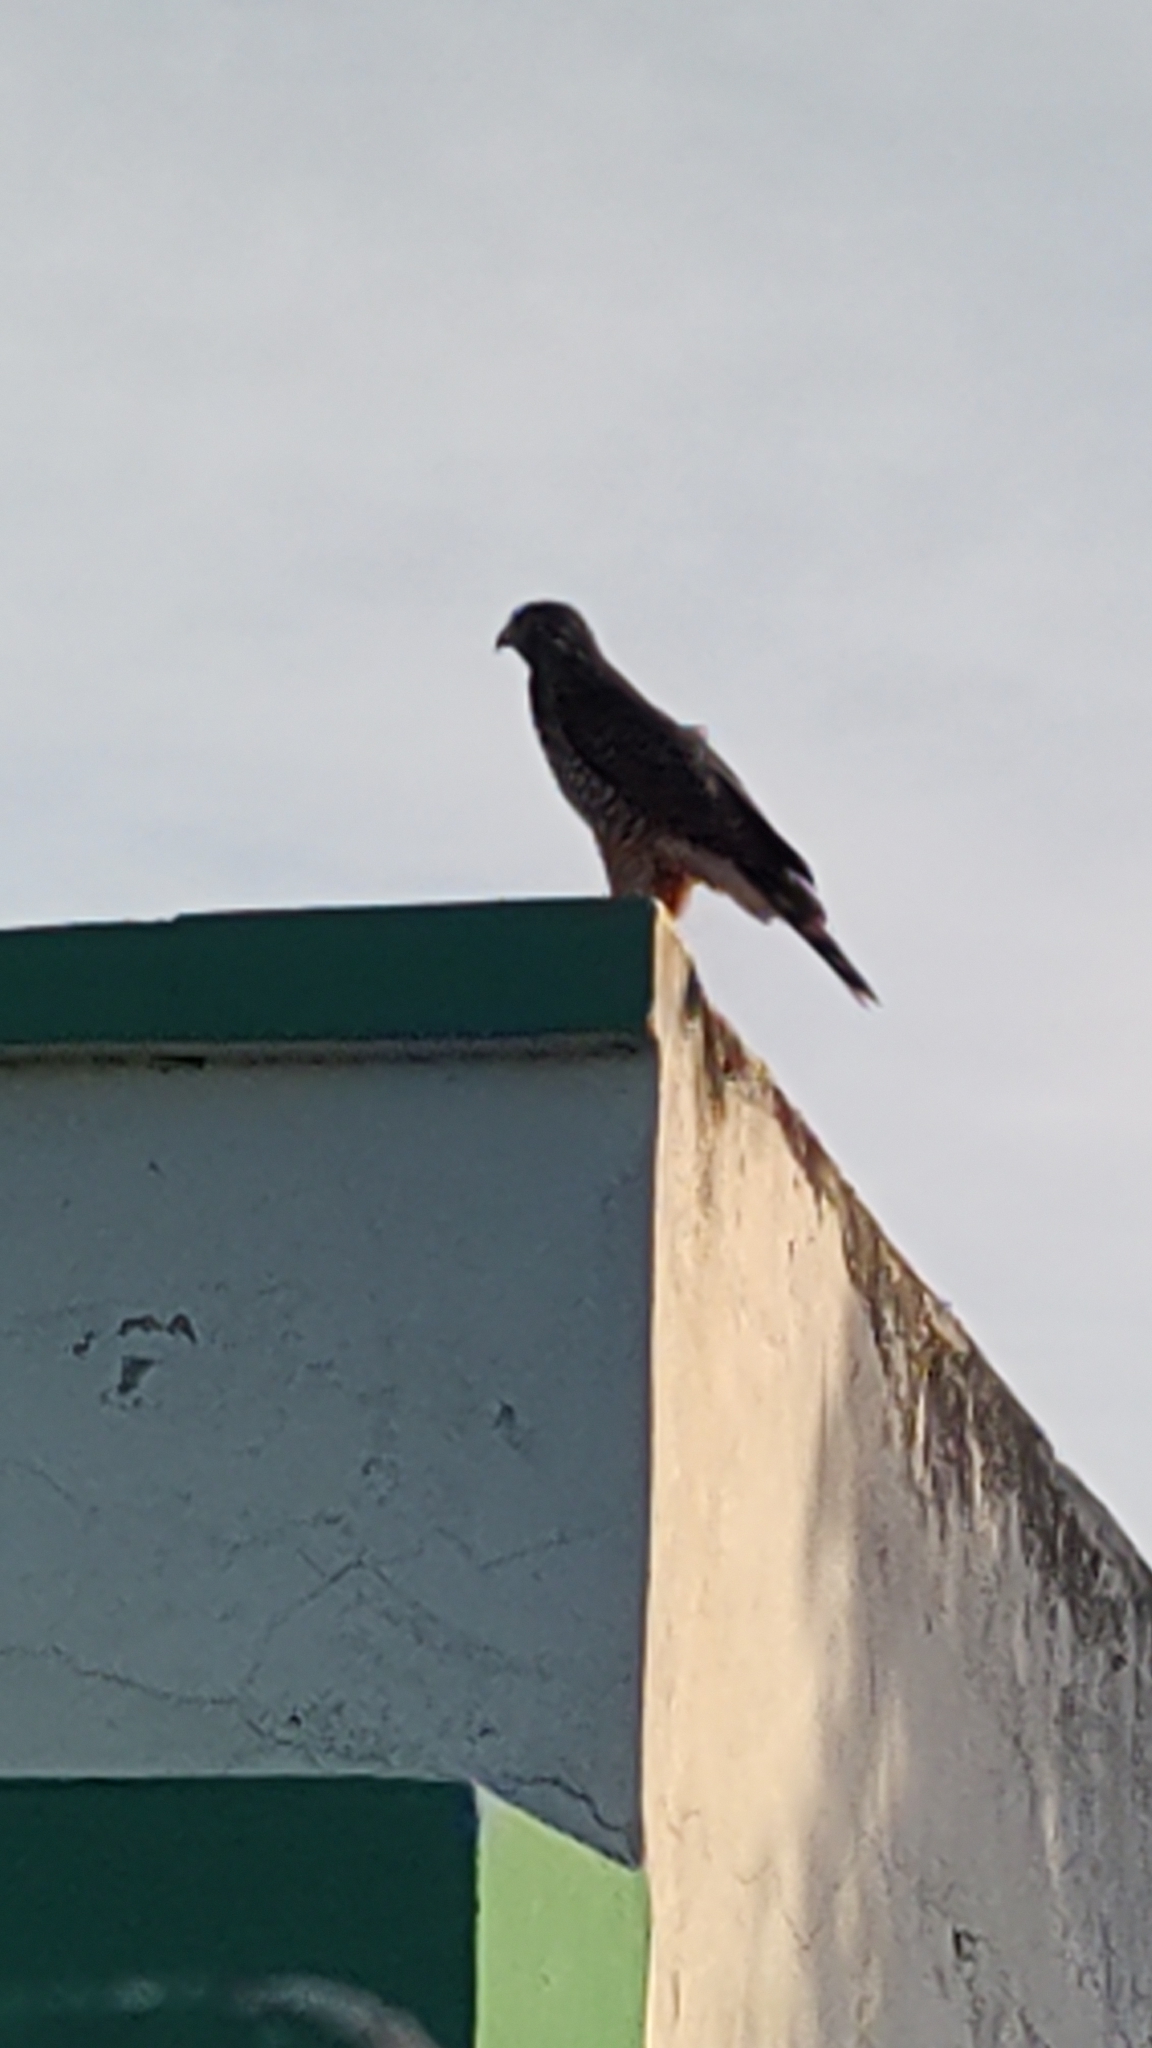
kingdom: Animalia
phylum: Chordata
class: Aves
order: Accipitriformes
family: Accipitridae
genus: Rupornis
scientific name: Rupornis magnirostris
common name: Roadside hawk
